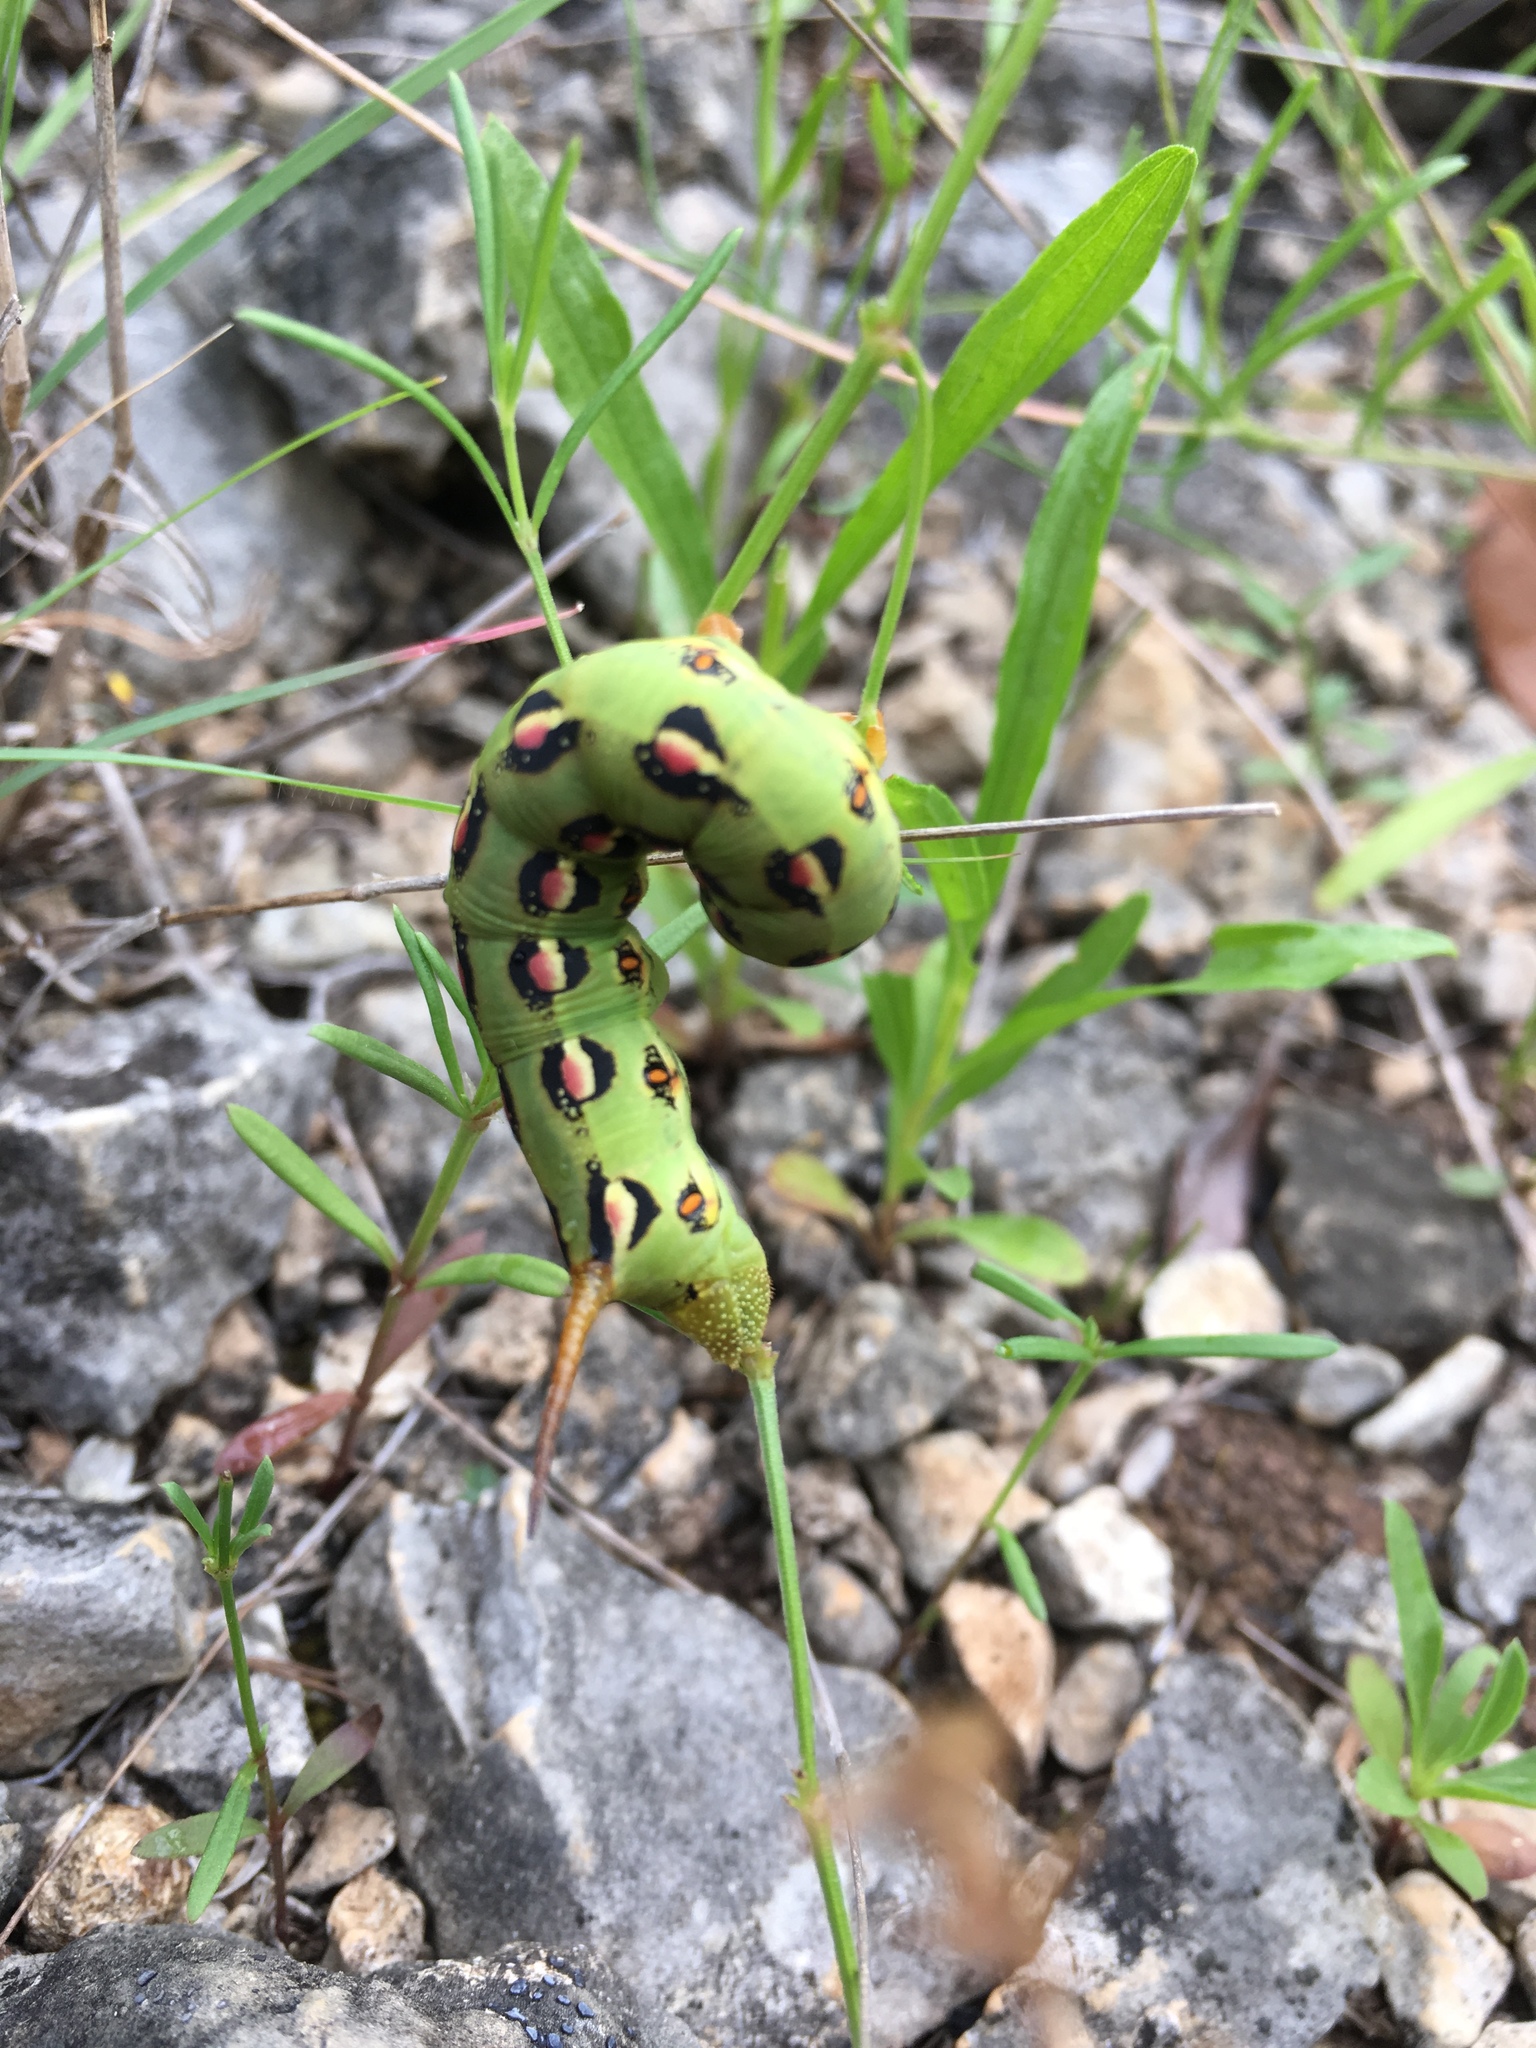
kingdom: Animalia
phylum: Arthropoda
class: Insecta
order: Lepidoptera
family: Sphingidae
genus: Hyles
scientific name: Hyles lineata
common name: White-lined sphinx
